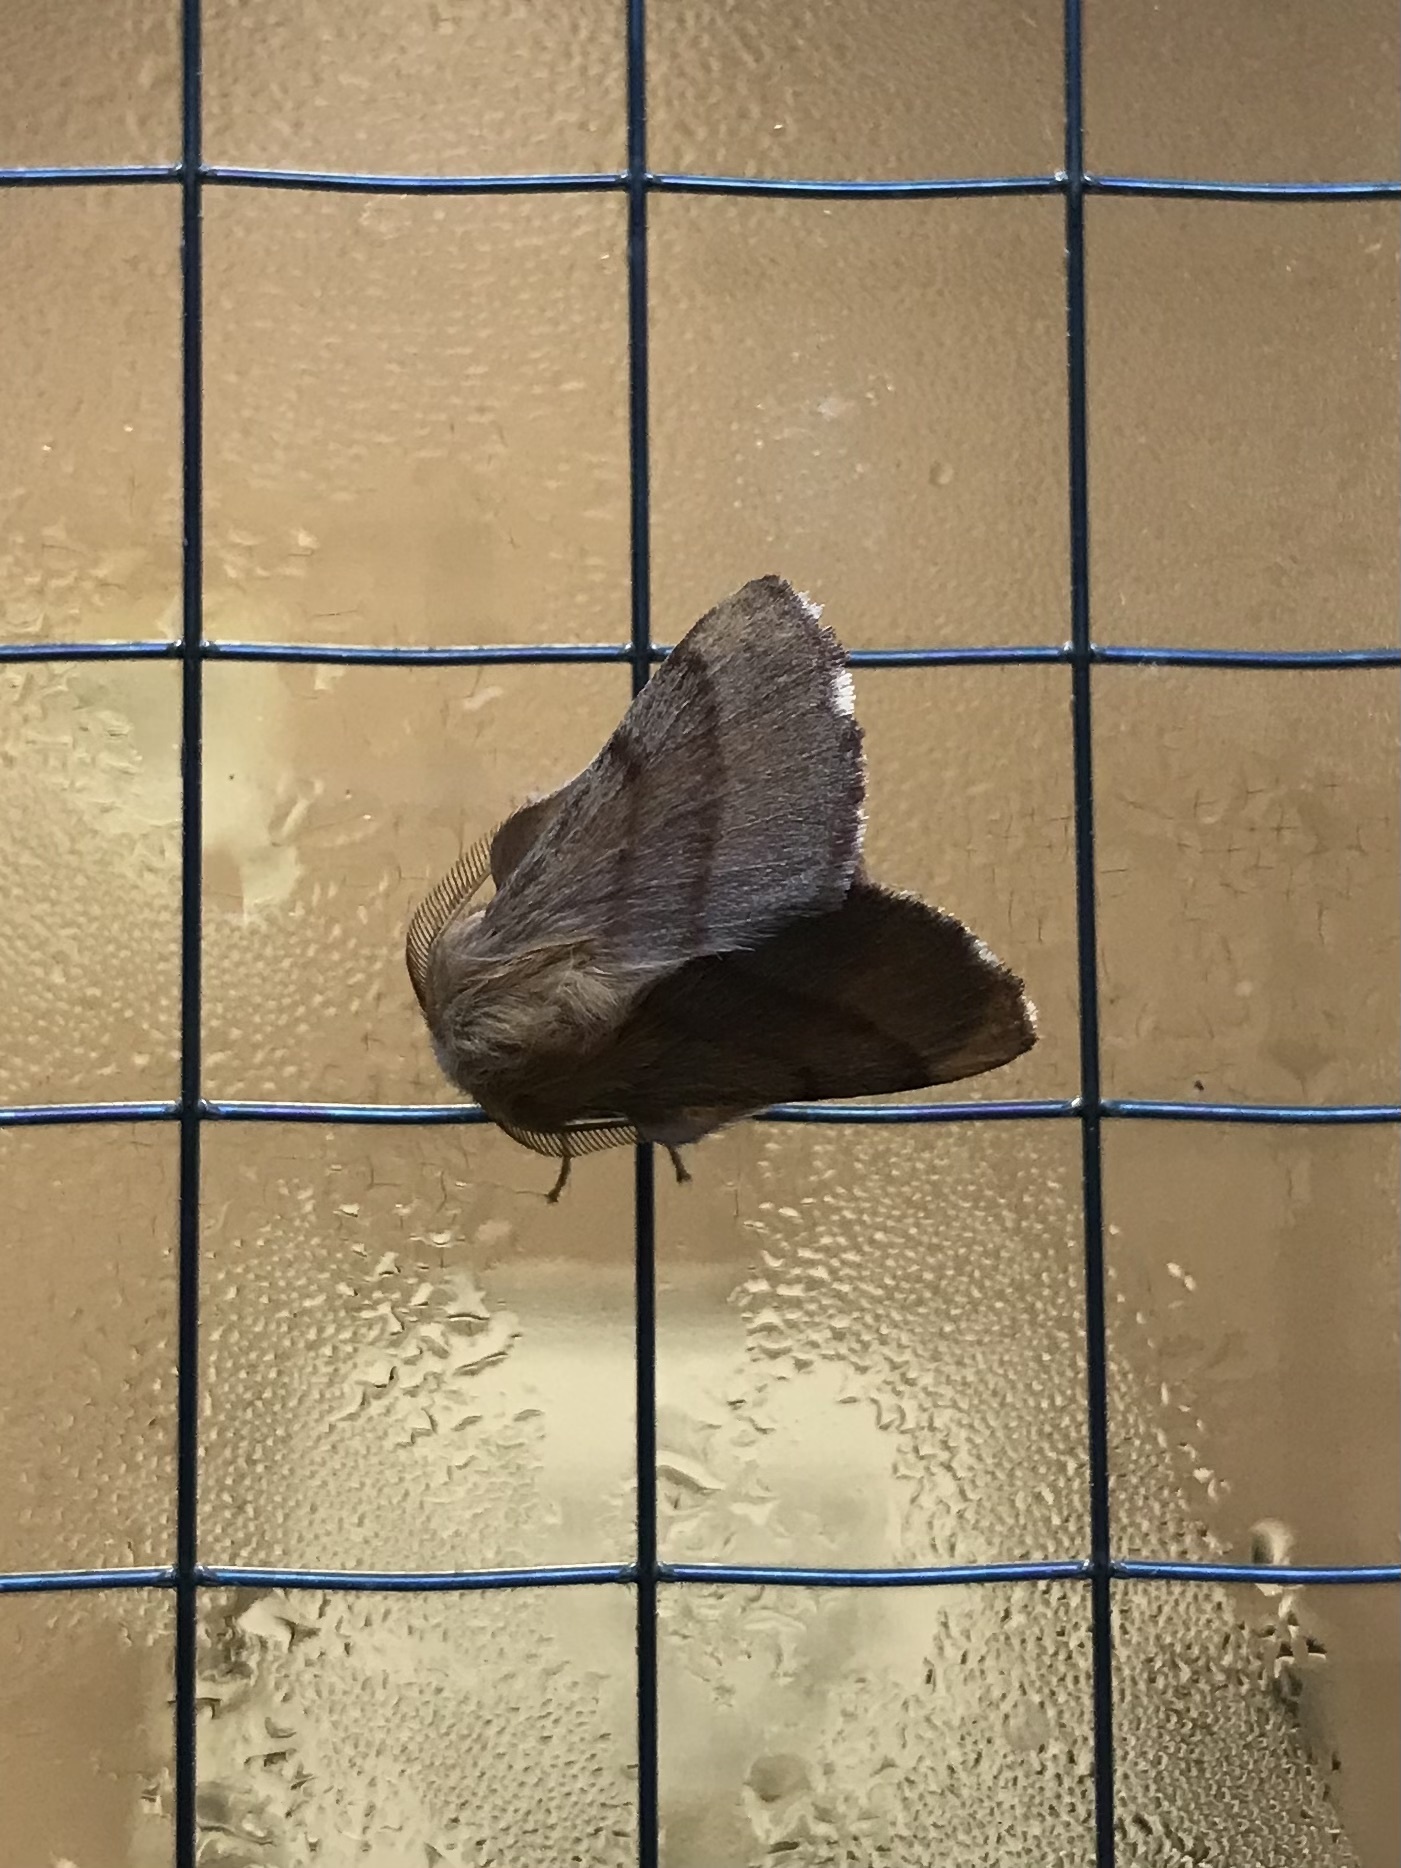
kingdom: Animalia
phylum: Arthropoda
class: Insecta
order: Lepidoptera
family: Lasiocampidae
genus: Malacosoma
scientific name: Malacosoma disstria
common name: Forest tent caterpillar
